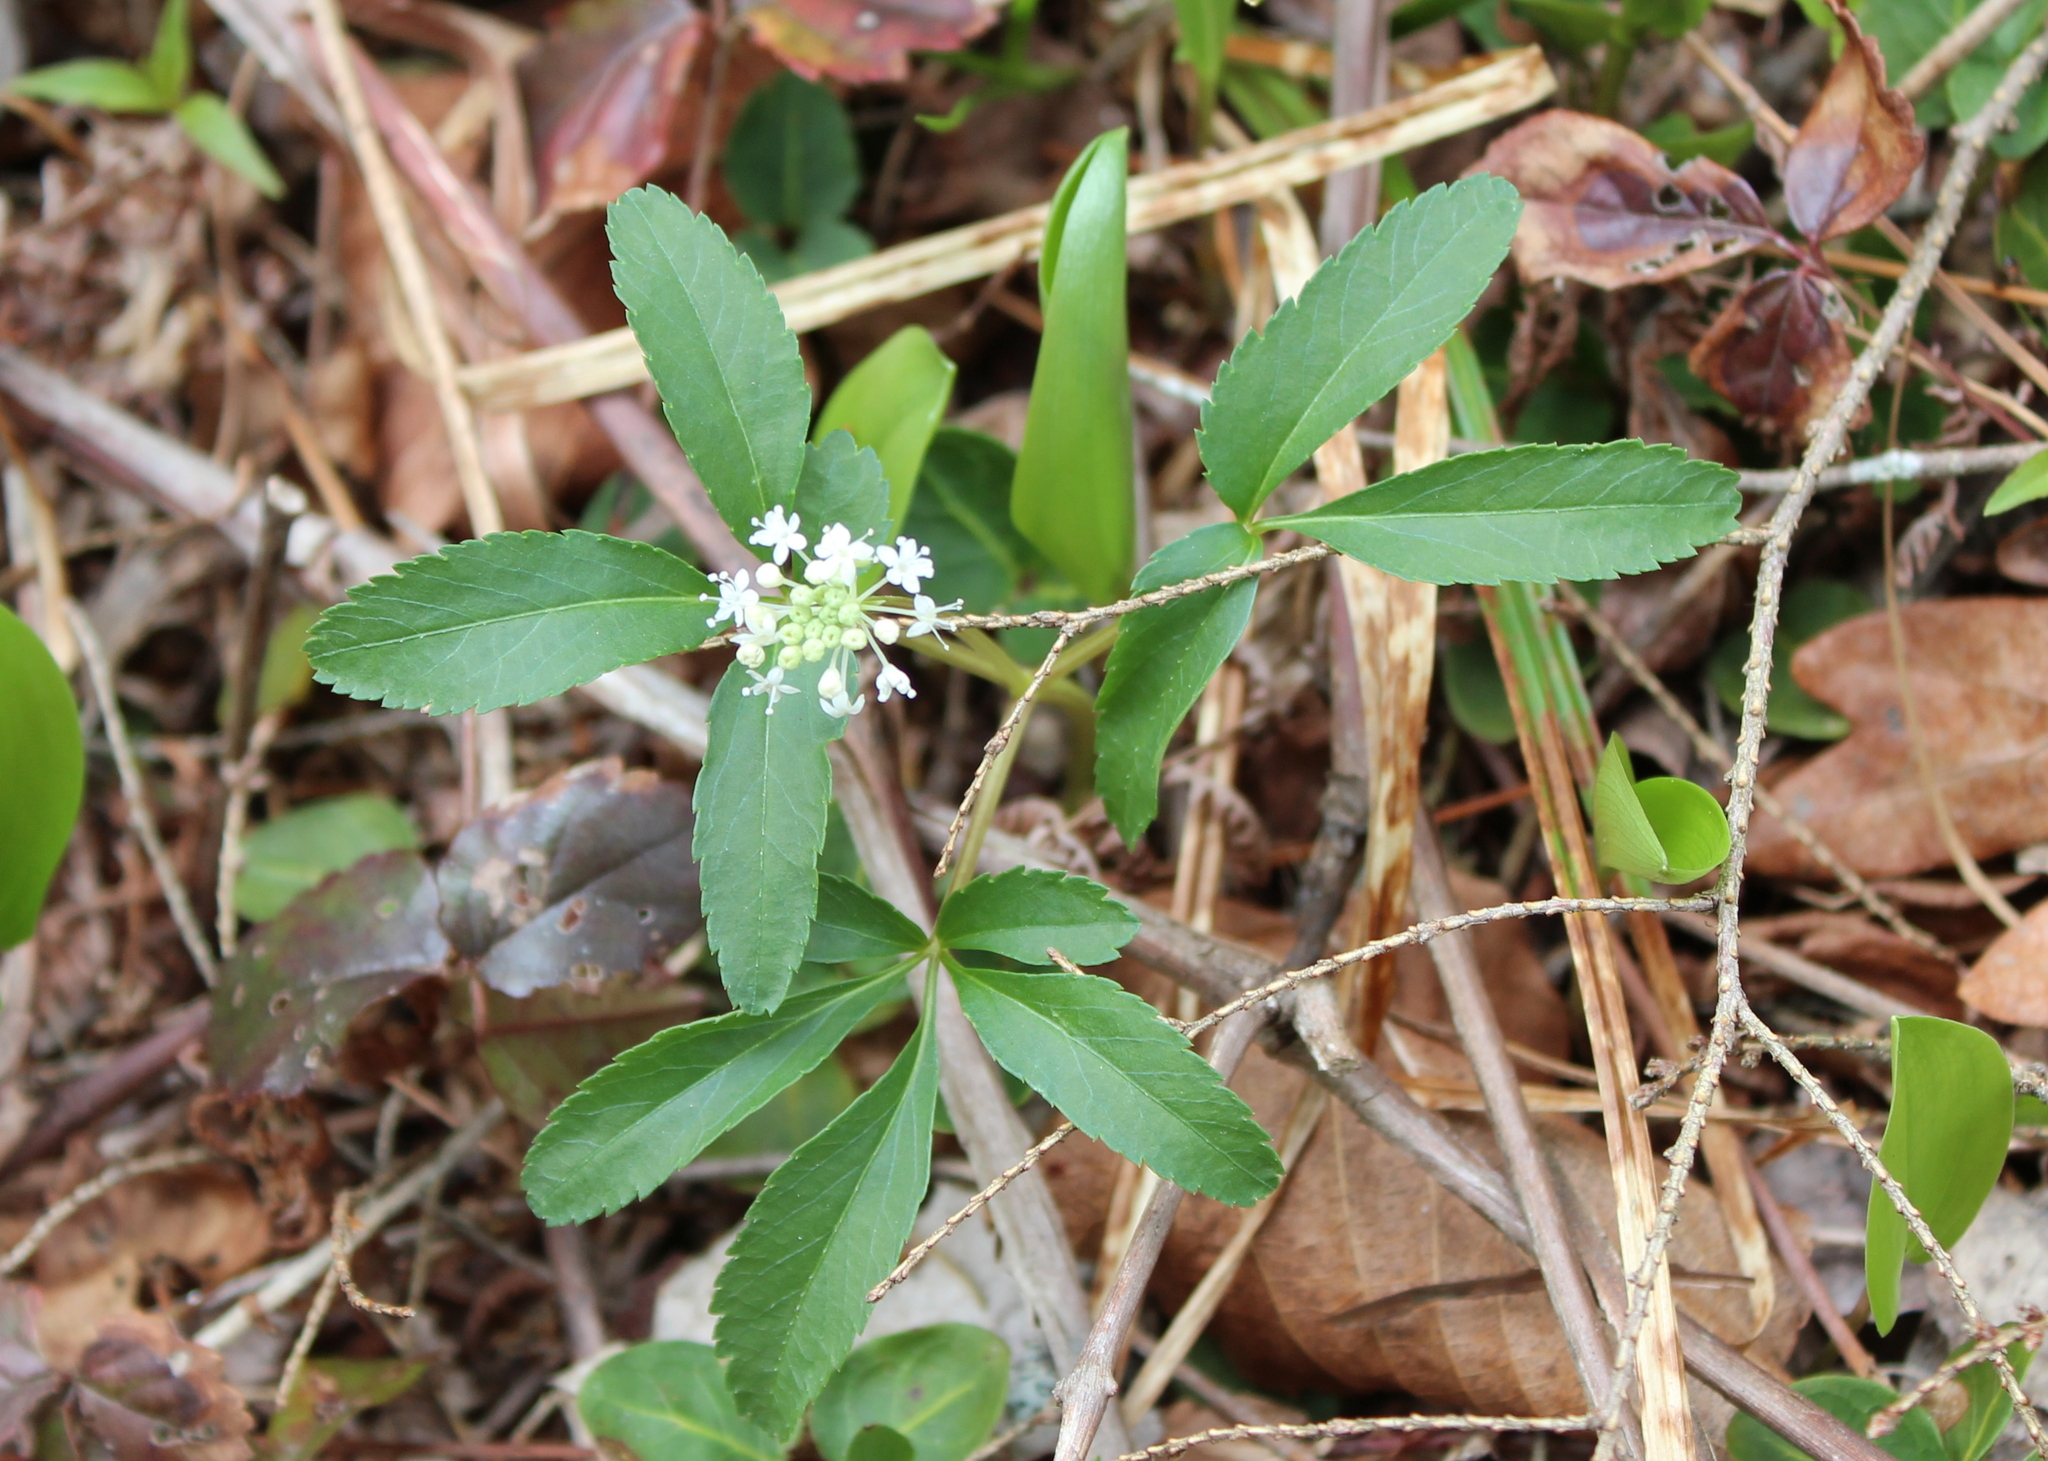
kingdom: Plantae
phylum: Tracheophyta
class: Magnoliopsida
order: Apiales
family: Araliaceae
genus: Panax
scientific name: Panax trifolius
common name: Dwarf ginseng
